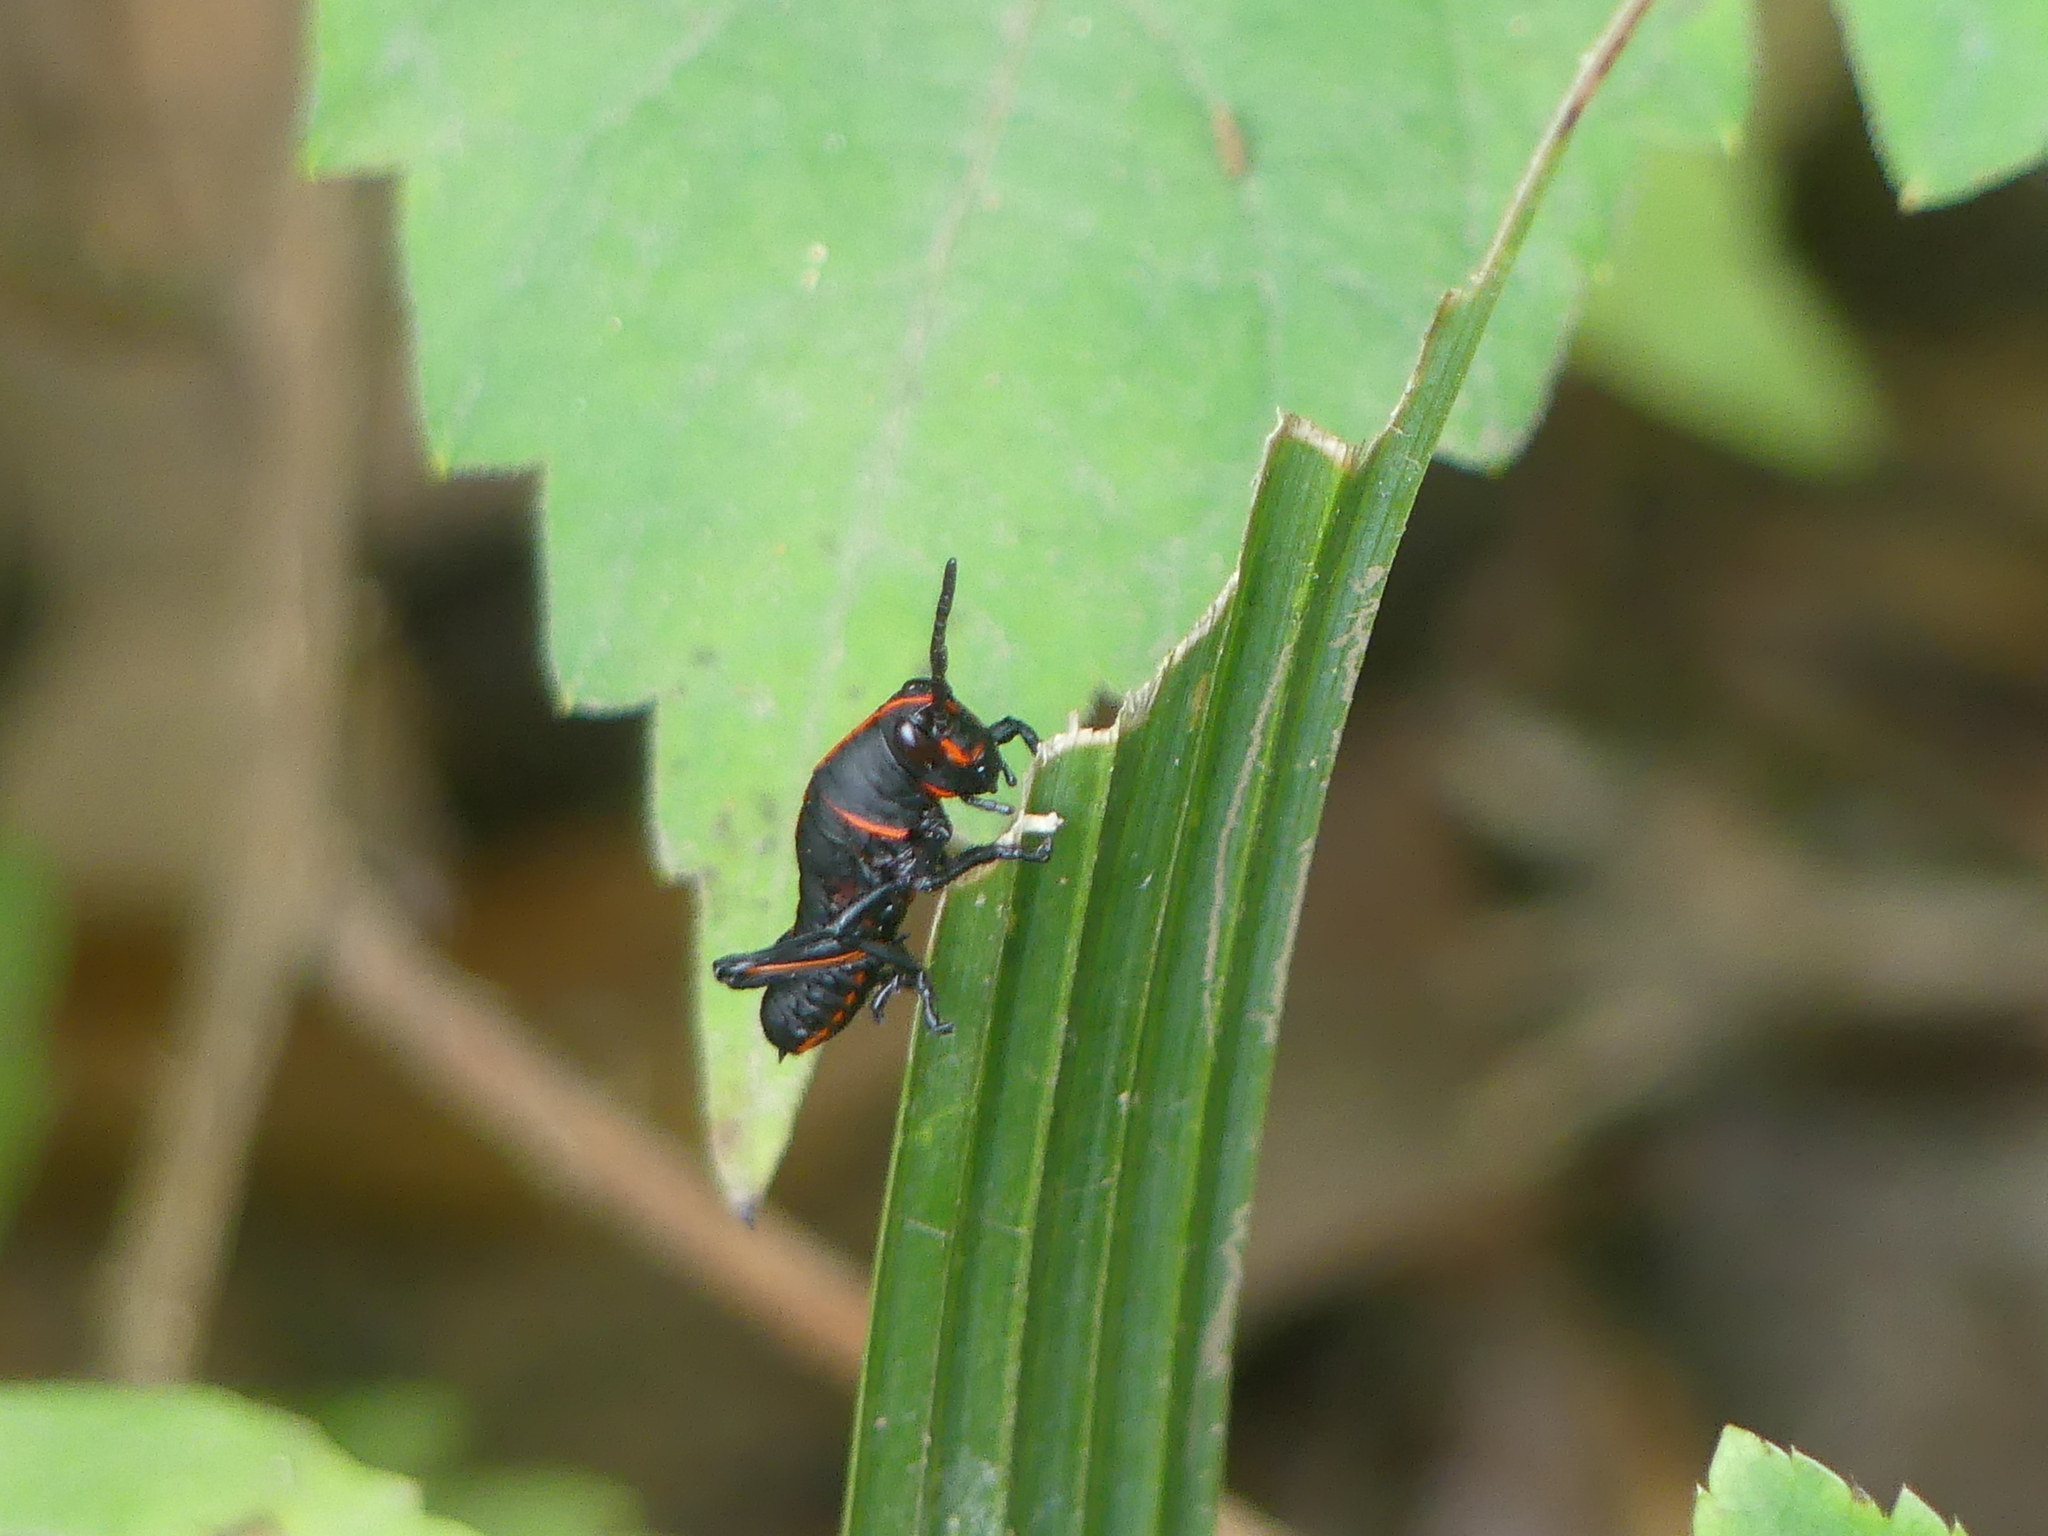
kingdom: Animalia
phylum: Arthropoda
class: Insecta
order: Orthoptera
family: Romaleidae
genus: Romalea
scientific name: Romalea microptera
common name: Eastern lubber grasshopper
